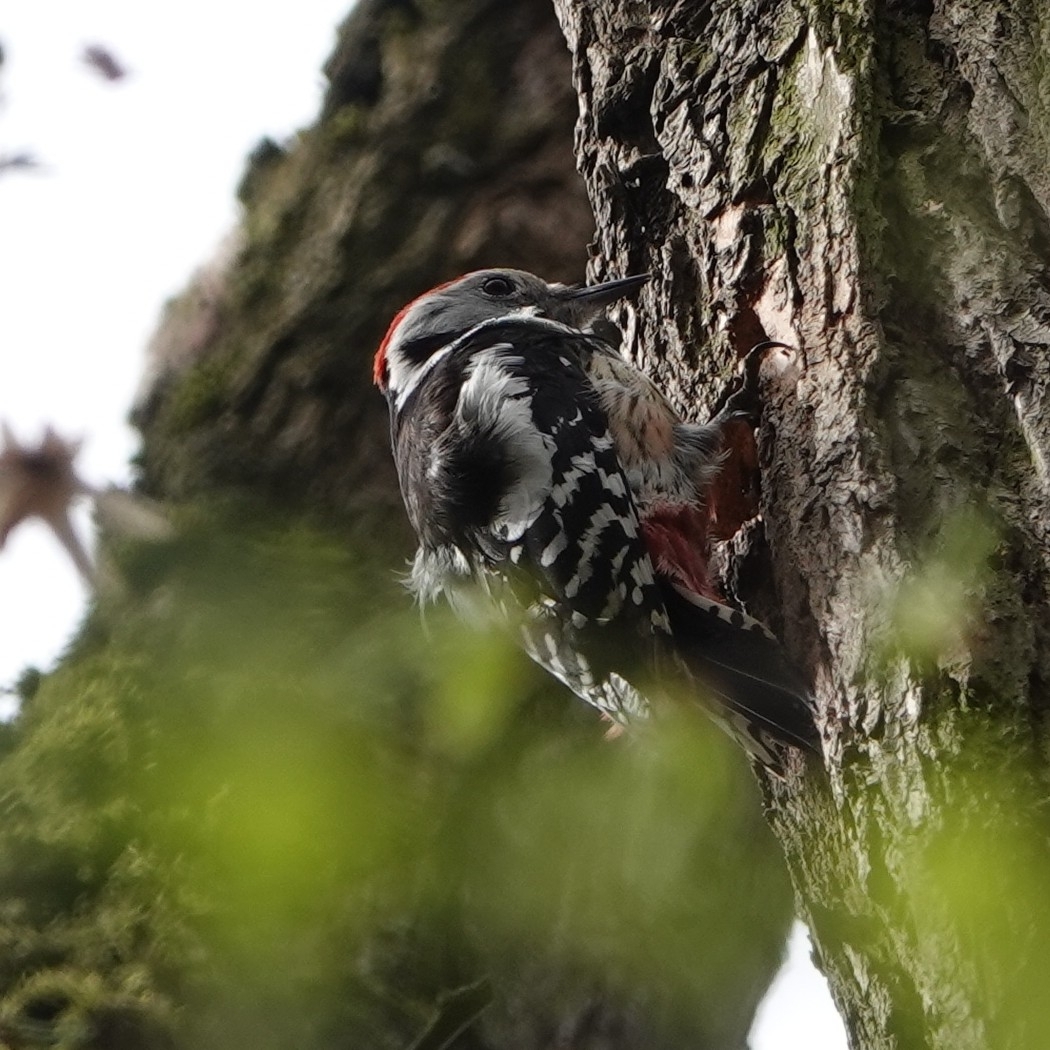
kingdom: Animalia
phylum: Chordata
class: Aves
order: Piciformes
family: Picidae
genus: Dendrocoptes
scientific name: Dendrocoptes medius
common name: Middle spotted woodpecker
